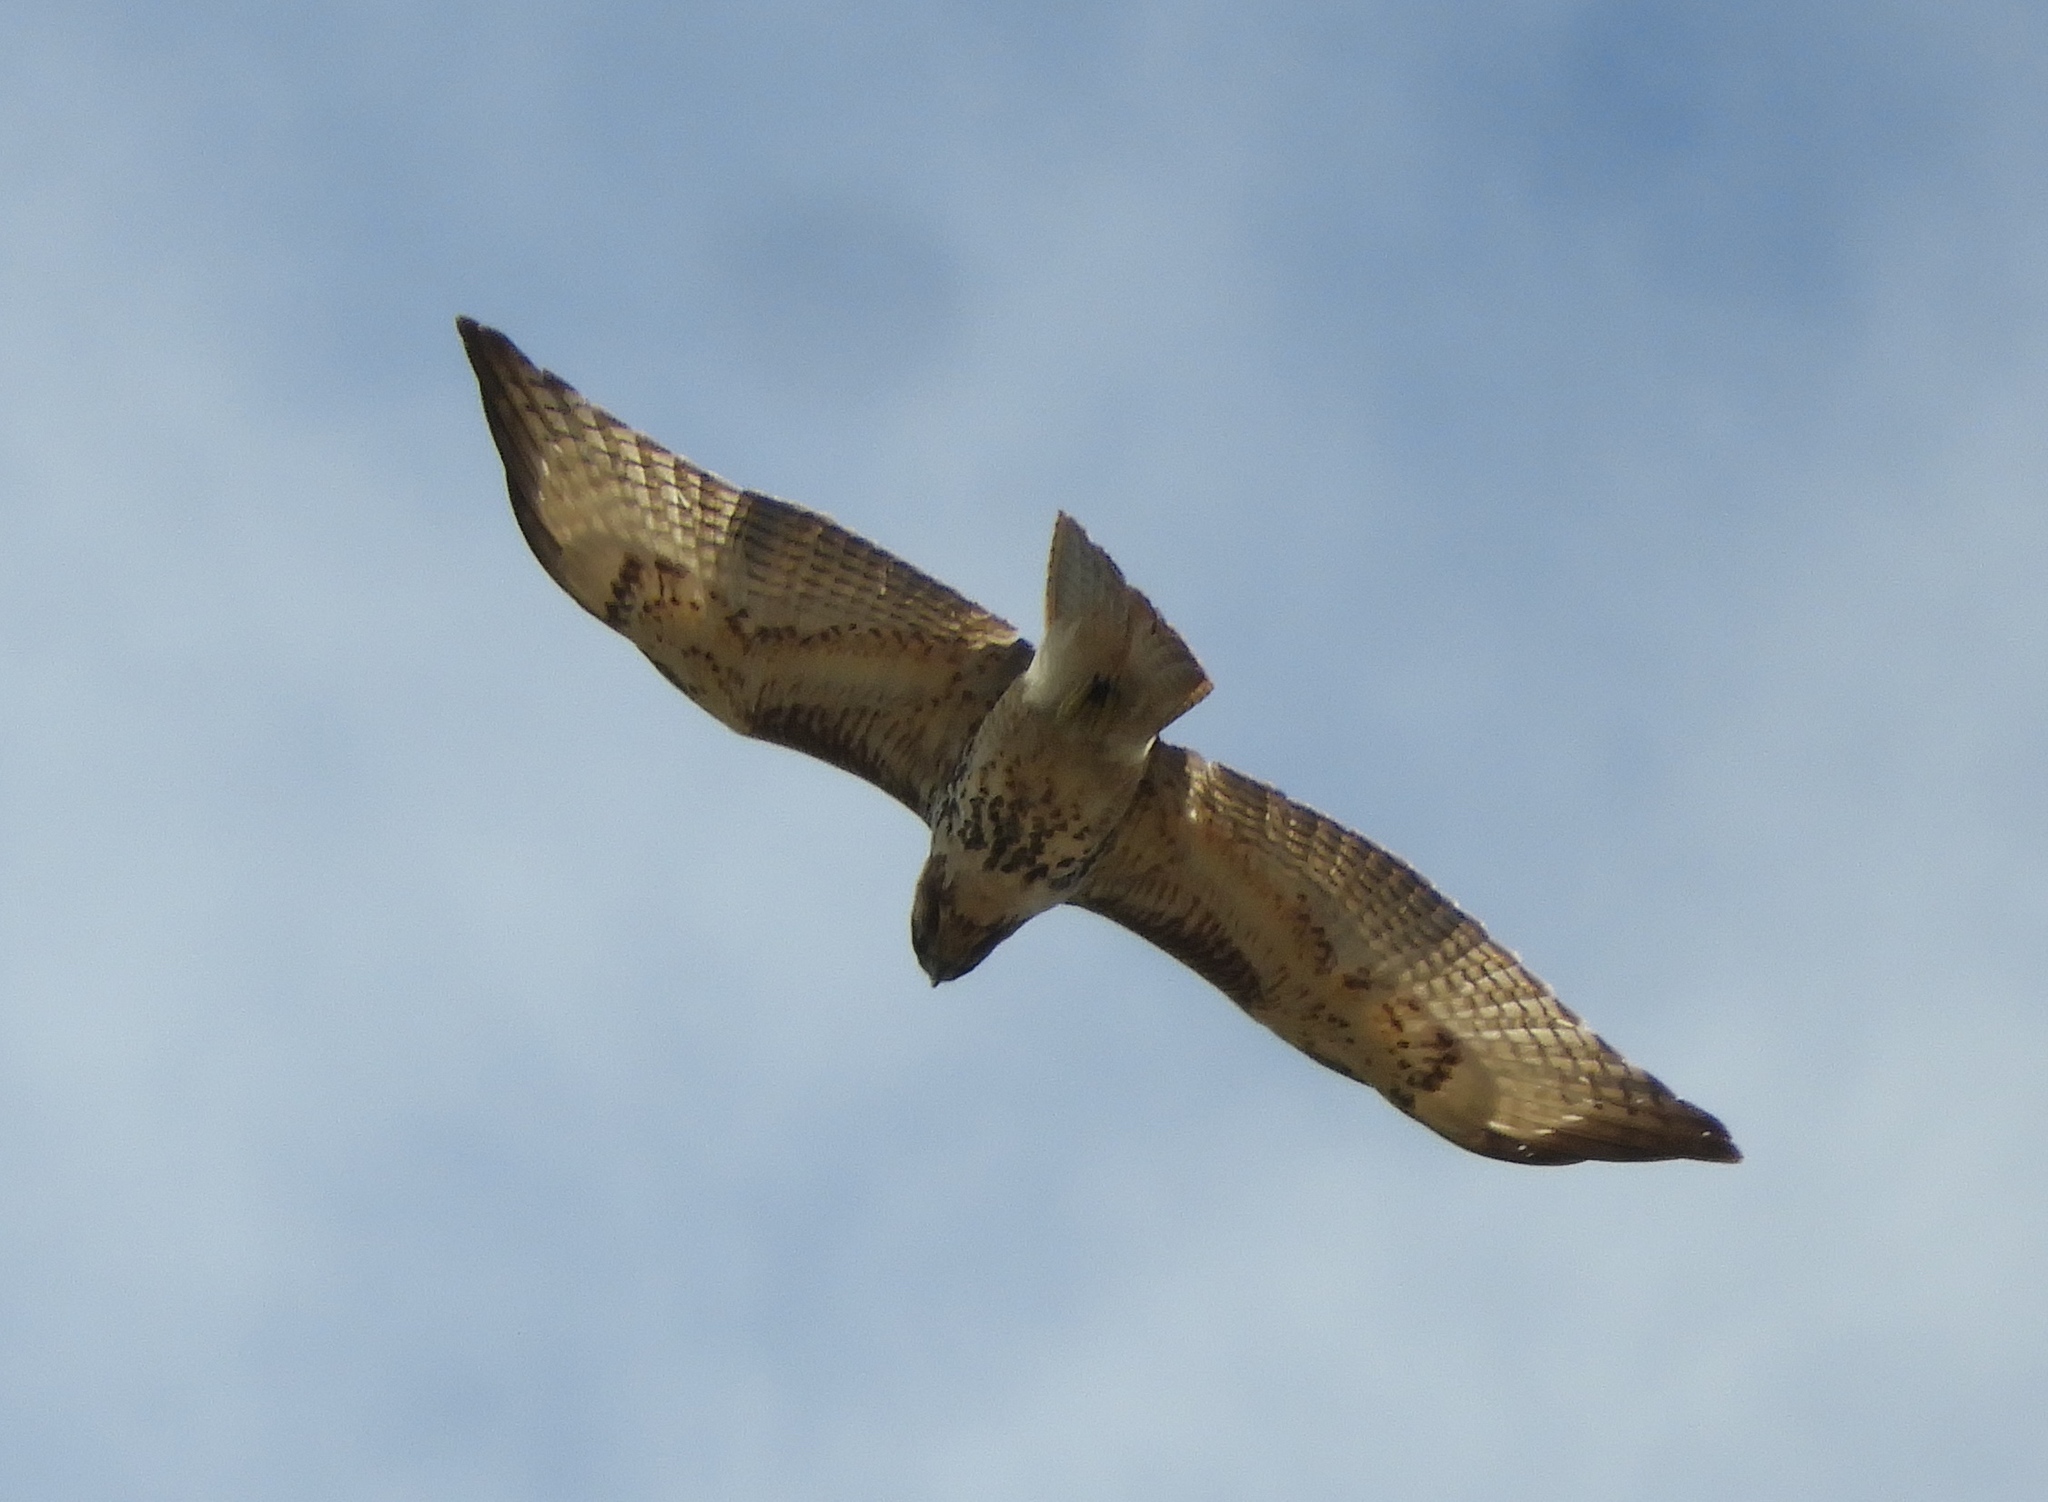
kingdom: Animalia
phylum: Chordata
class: Aves
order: Accipitriformes
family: Accipitridae
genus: Buteo
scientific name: Buteo jamaicensis
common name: Red-tailed hawk
